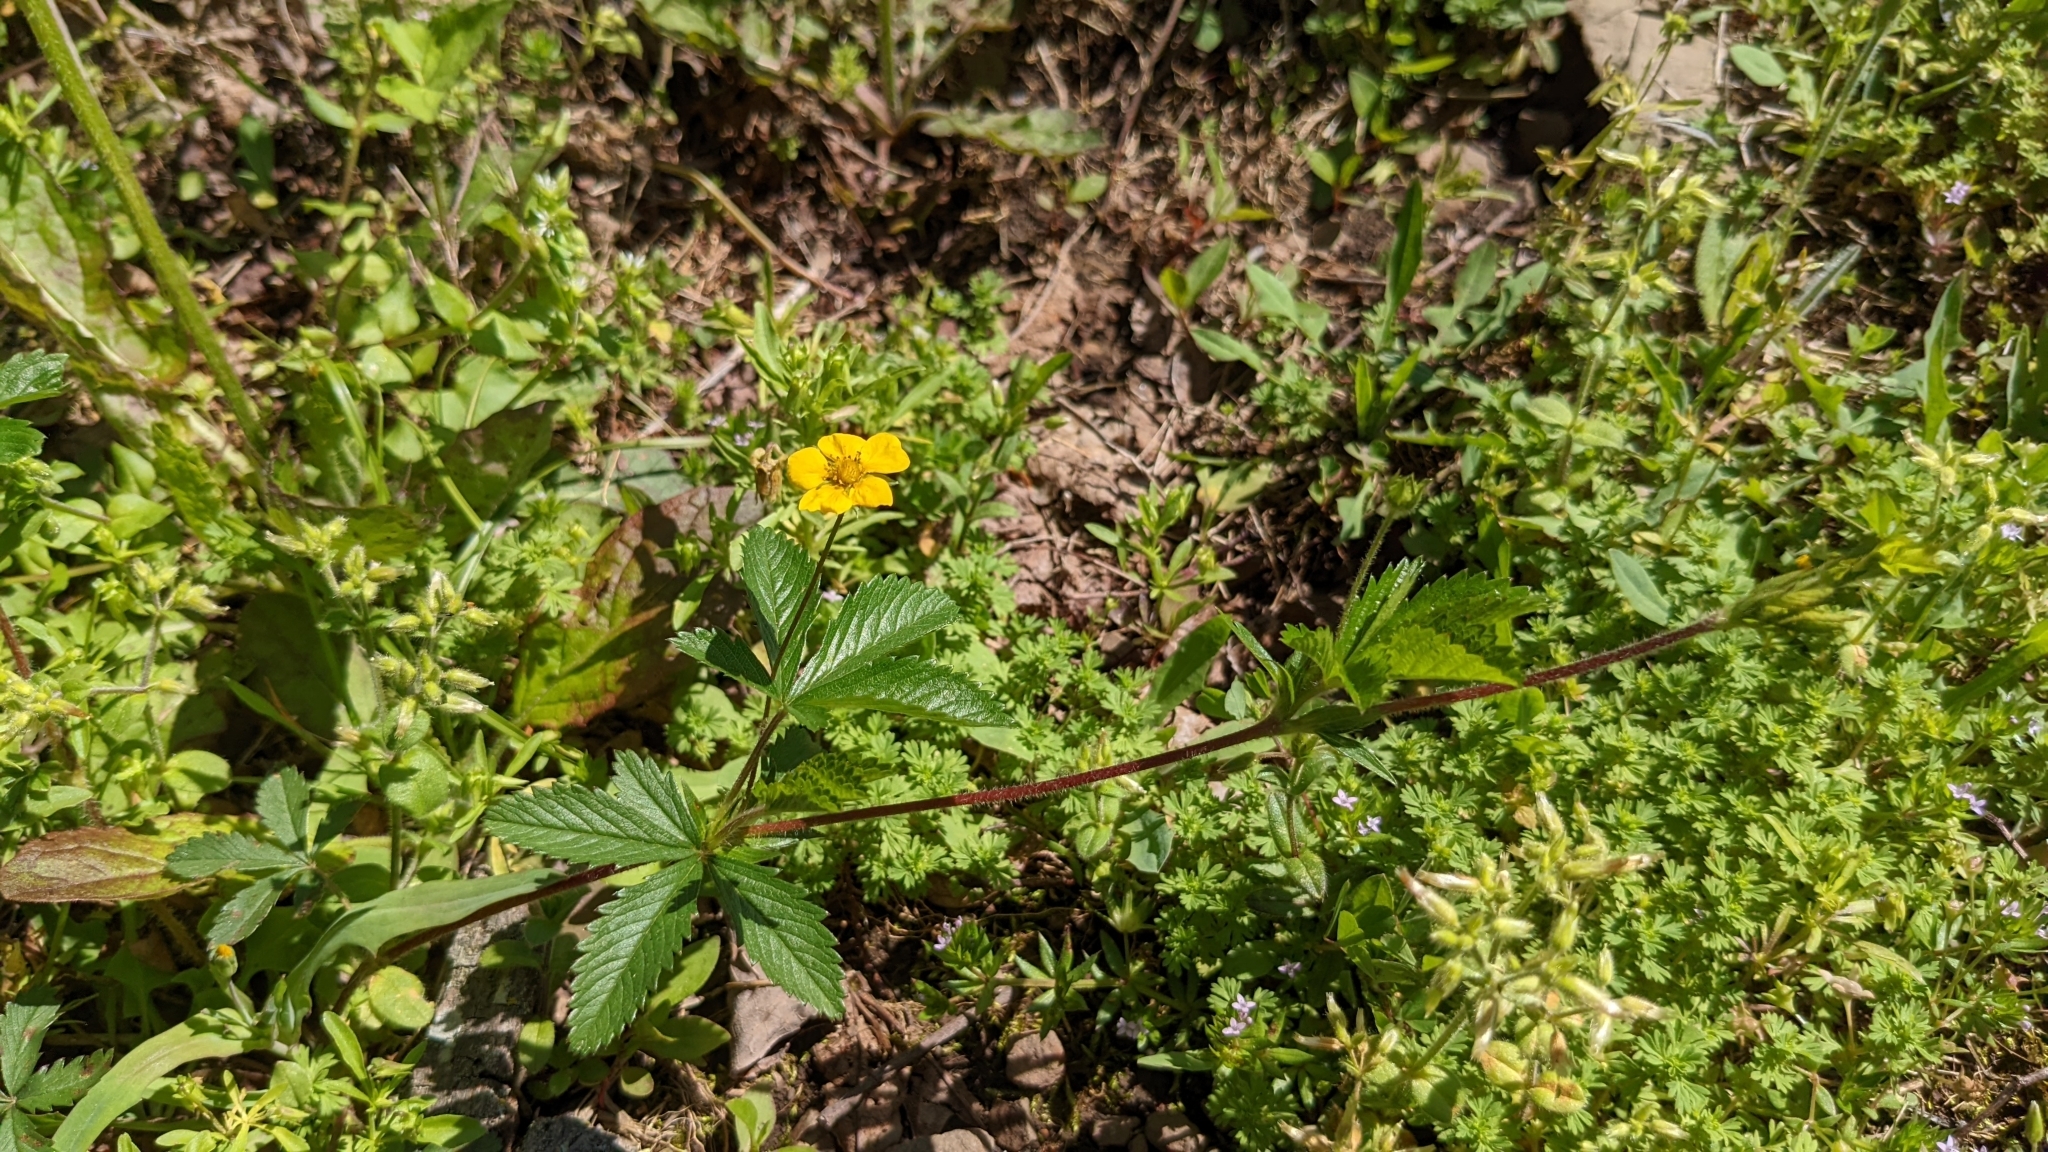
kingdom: Plantae
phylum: Tracheophyta
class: Magnoliopsida
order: Rosales
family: Rosaceae
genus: Potentilla
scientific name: Potentilla simplex
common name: Old field cinquefoil
